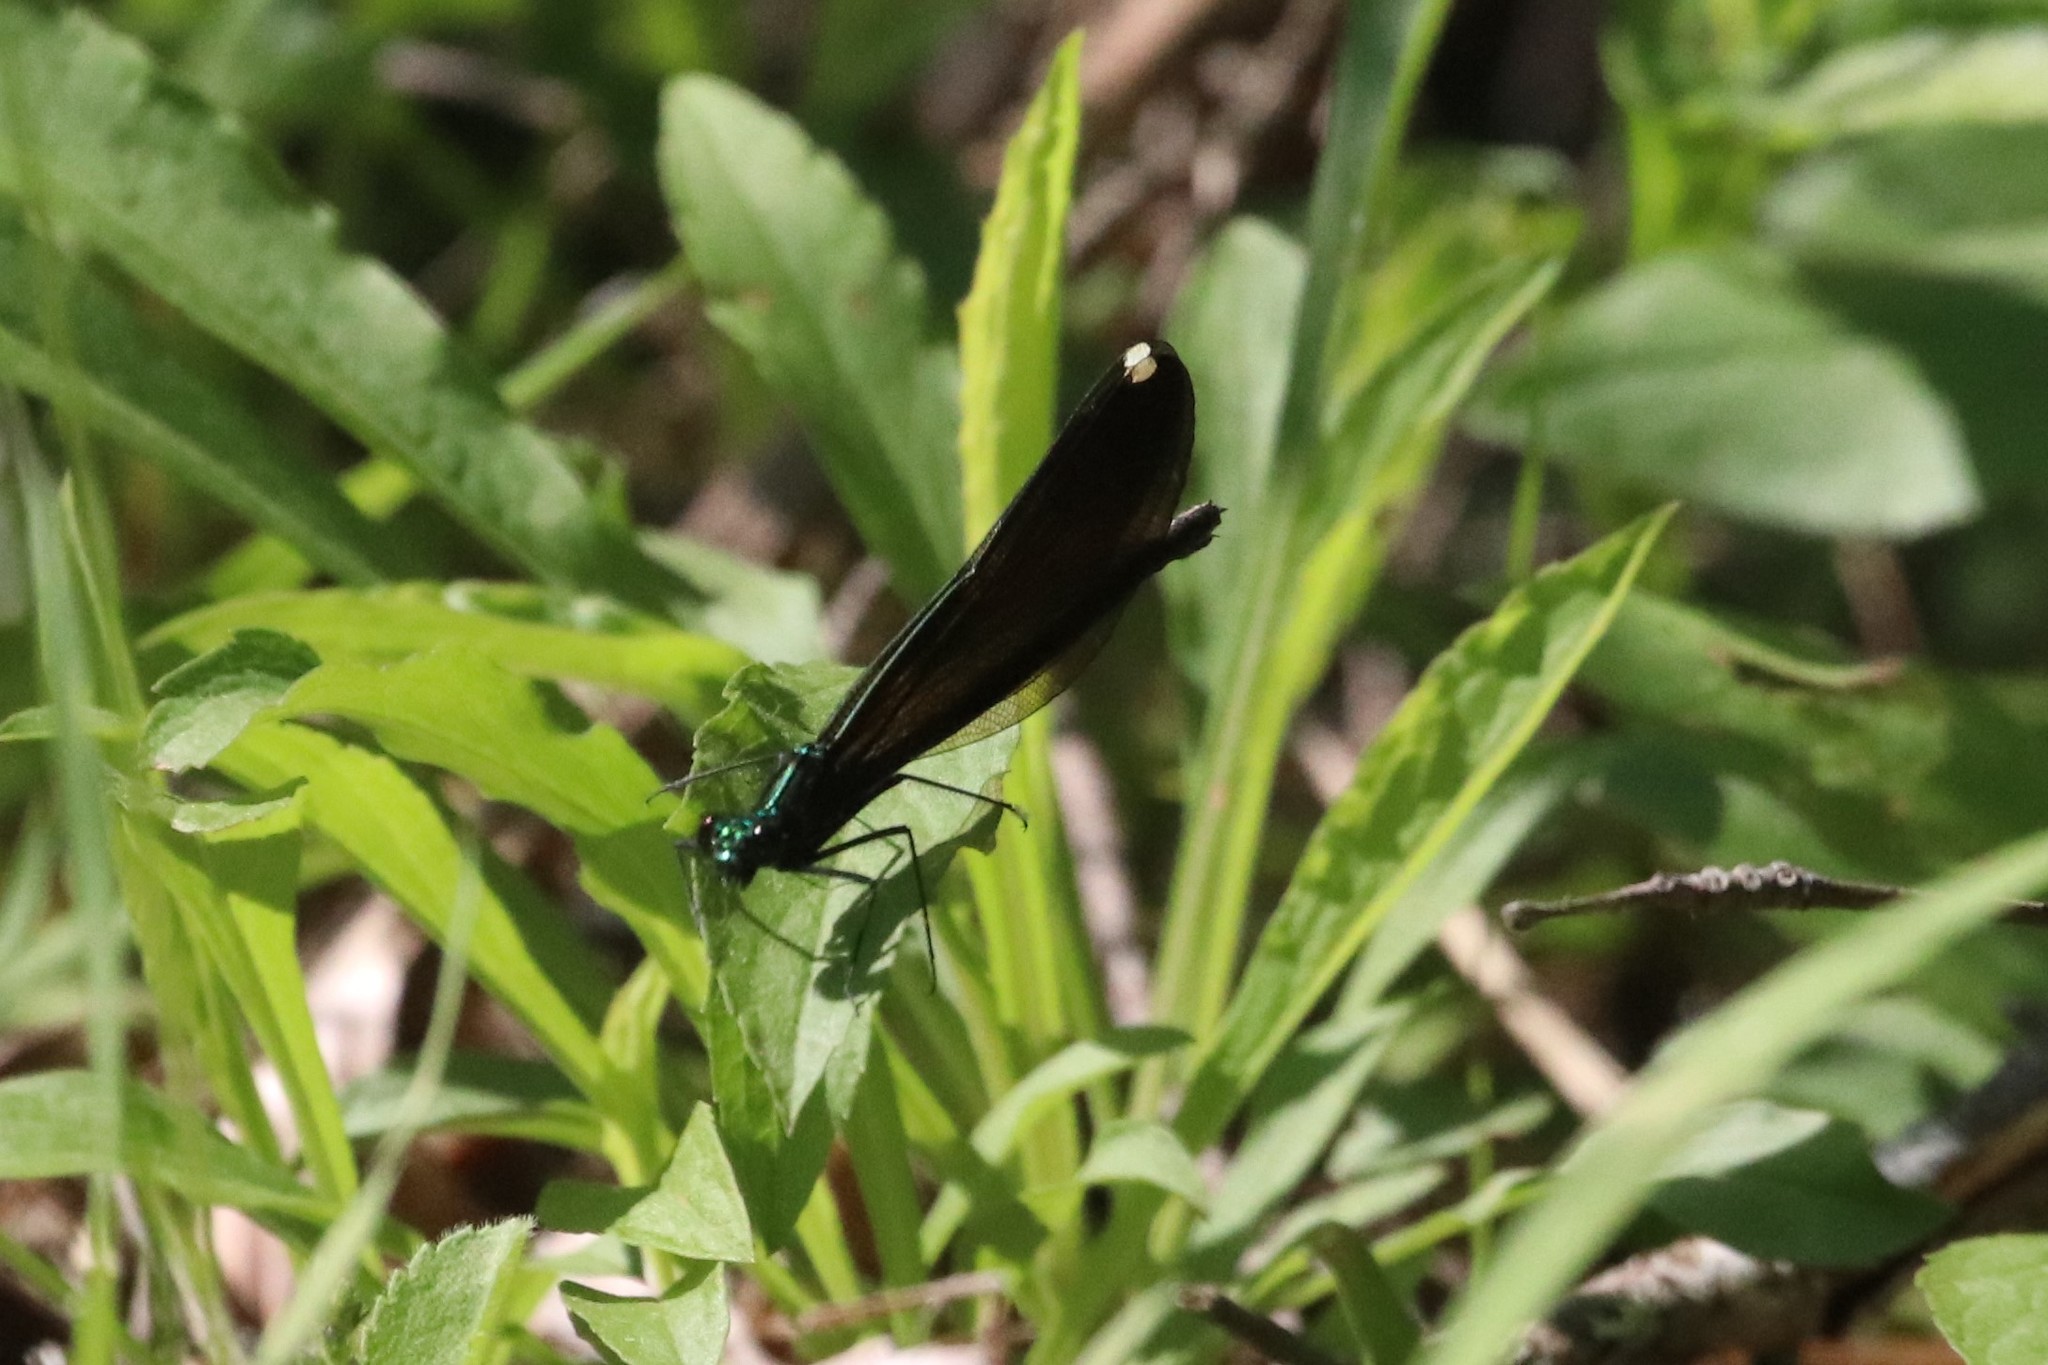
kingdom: Animalia
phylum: Arthropoda
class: Insecta
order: Odonata
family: Calopterygidae
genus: Calopteryx
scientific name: Calopteryx maculata
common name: Ebony jewelwing
